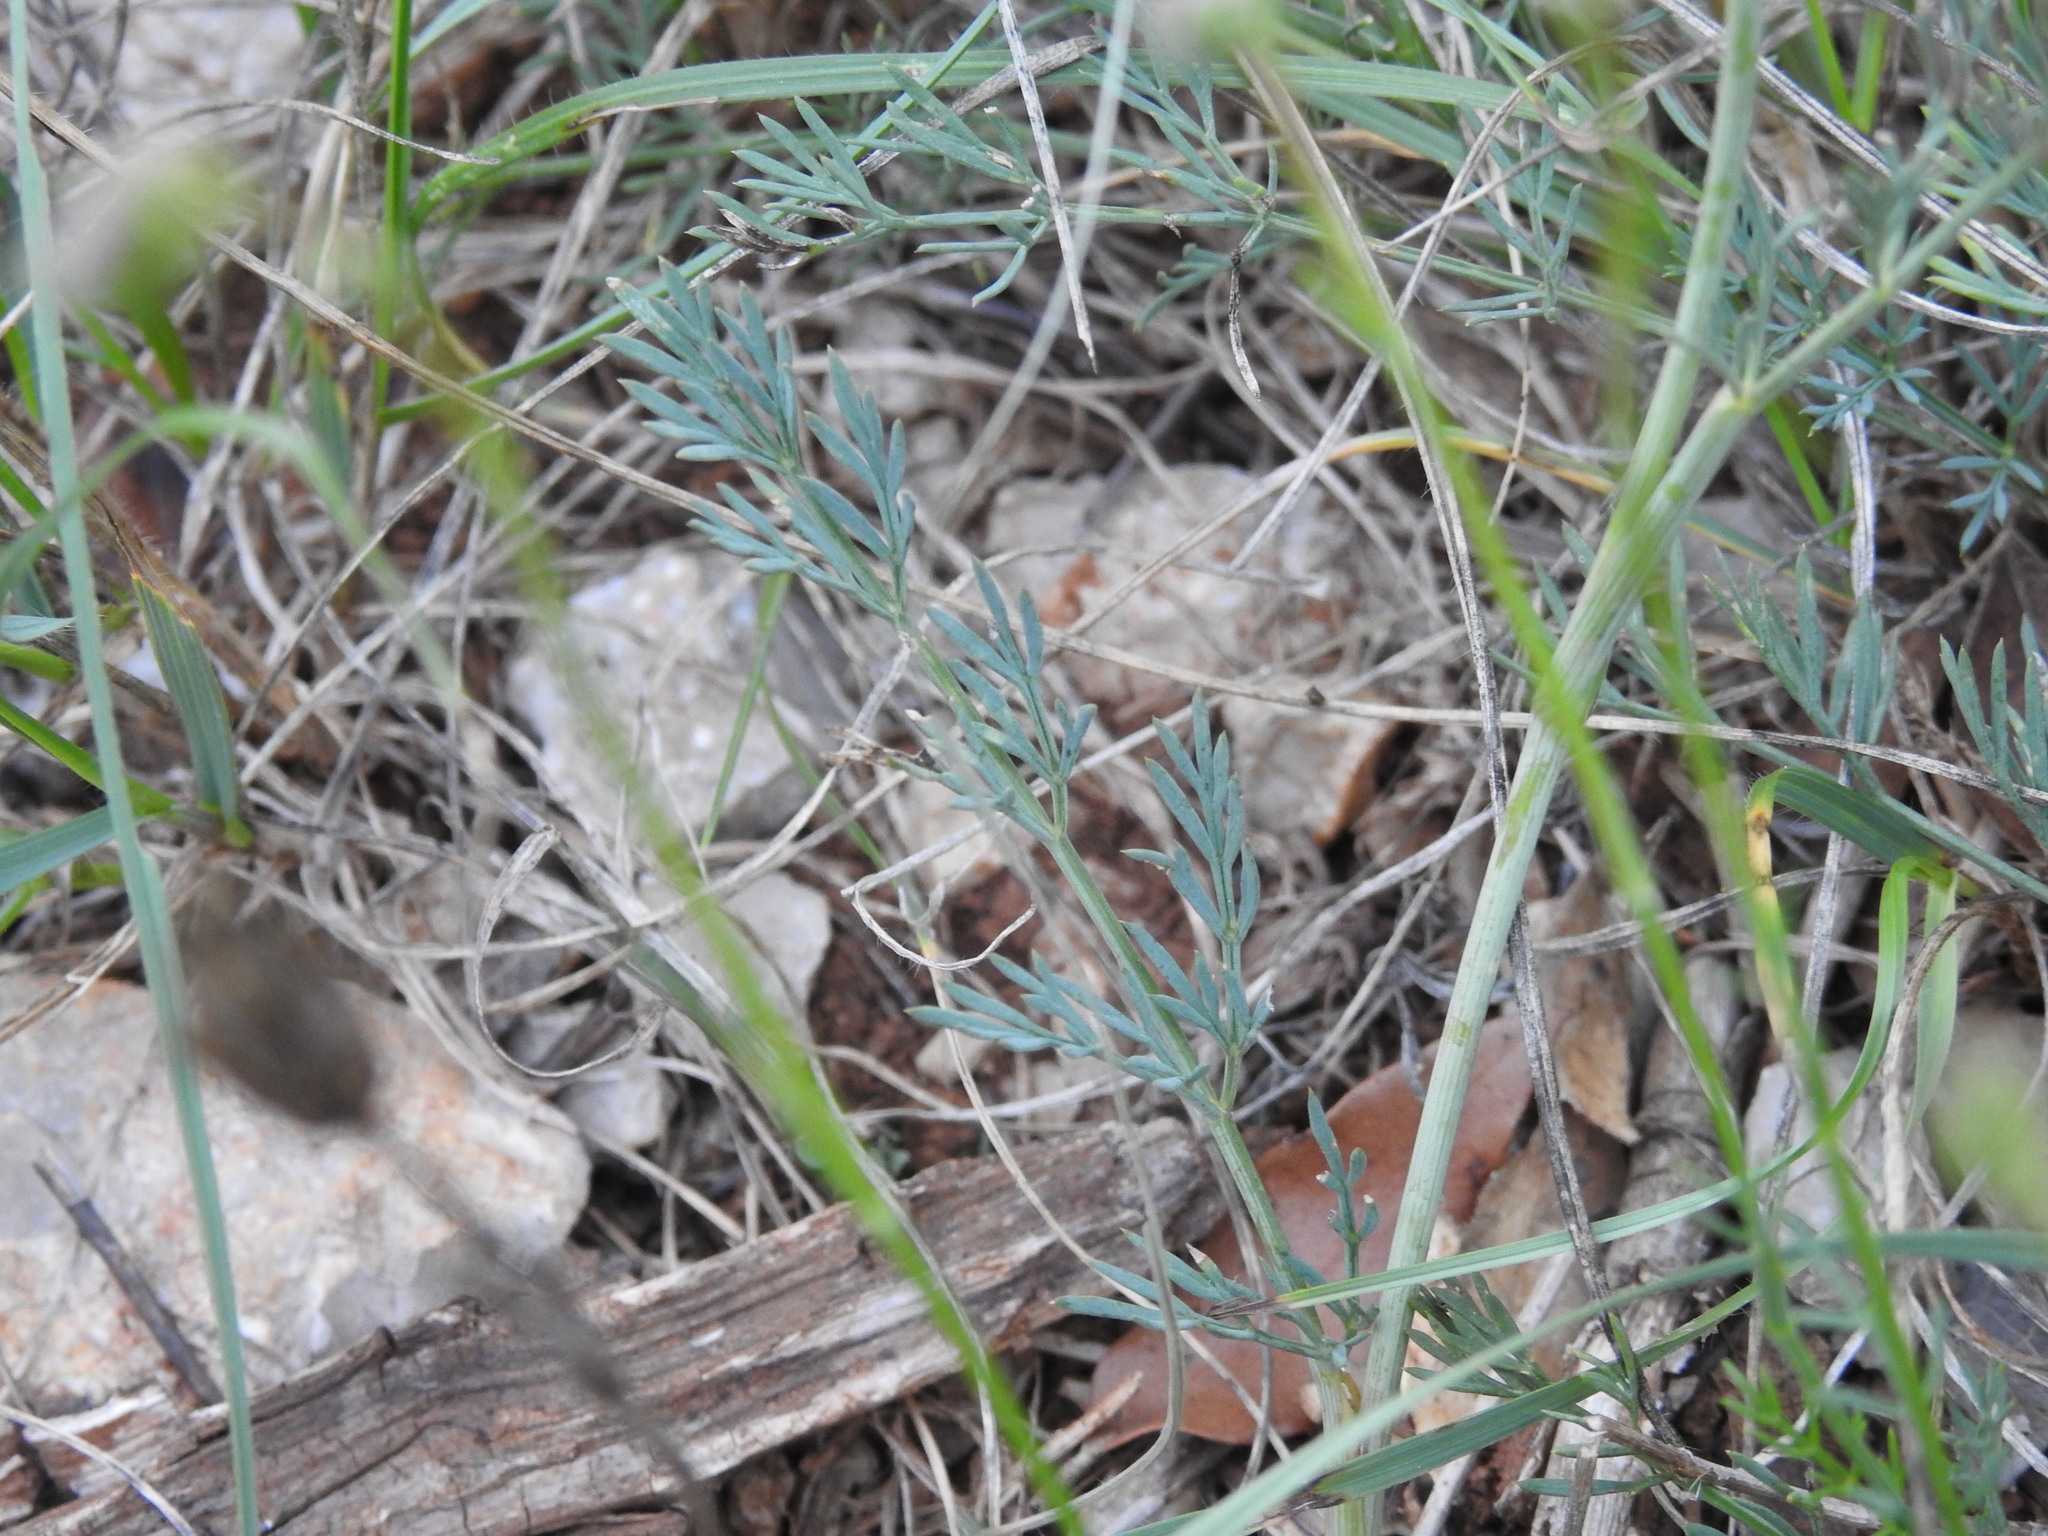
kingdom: Plantae
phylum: Tracheophyta
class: Magnoliopsida
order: Apiales
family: Apiaceae
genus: Seseli
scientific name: Seseli montanum
